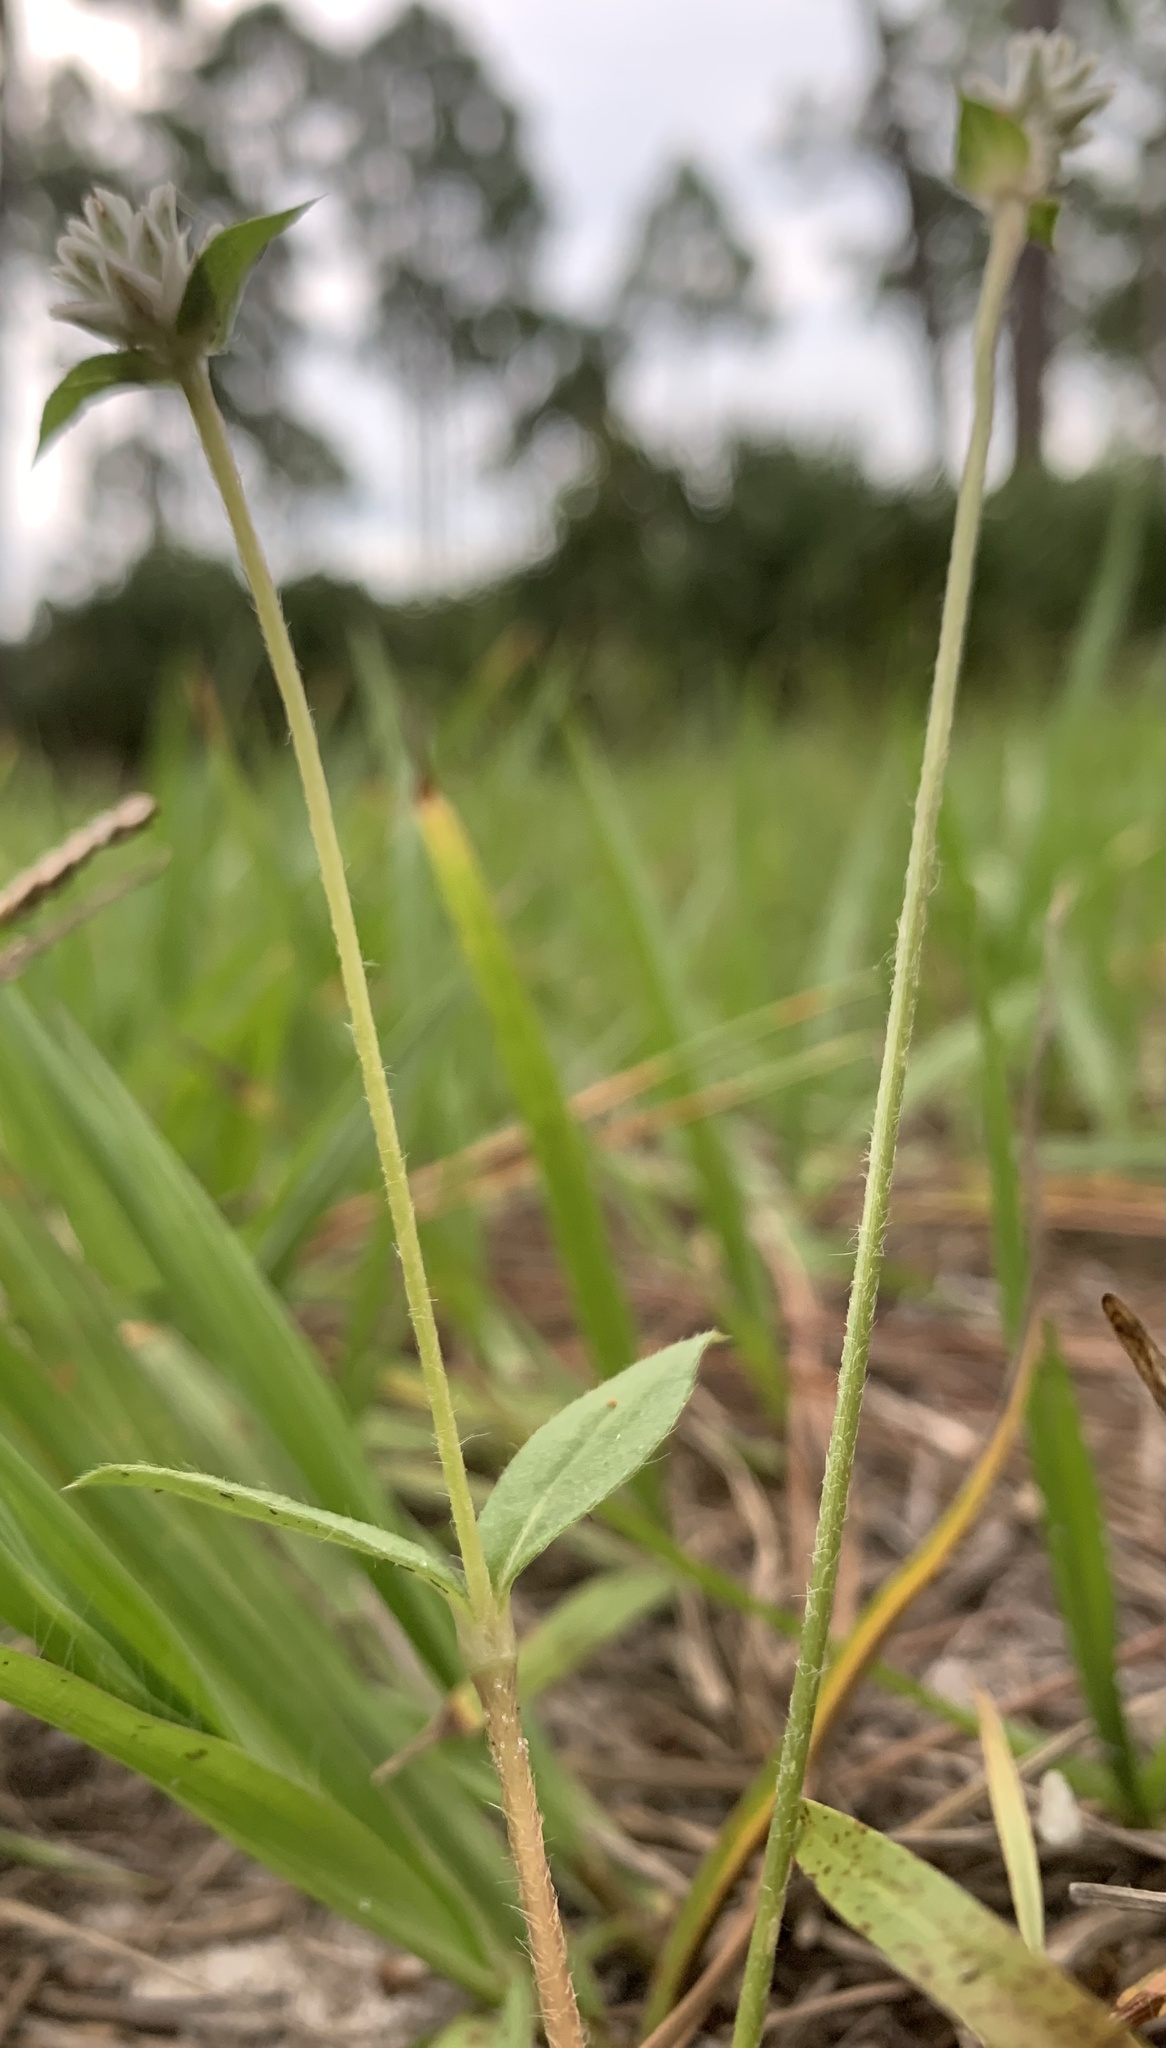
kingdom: Plantae
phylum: Tracheophyta
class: Magnoliopsida
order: Caryophyllales
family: Amaranthaceae
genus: Gomphrena
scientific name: Gomphrena serrata
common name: Arrasa con todo
